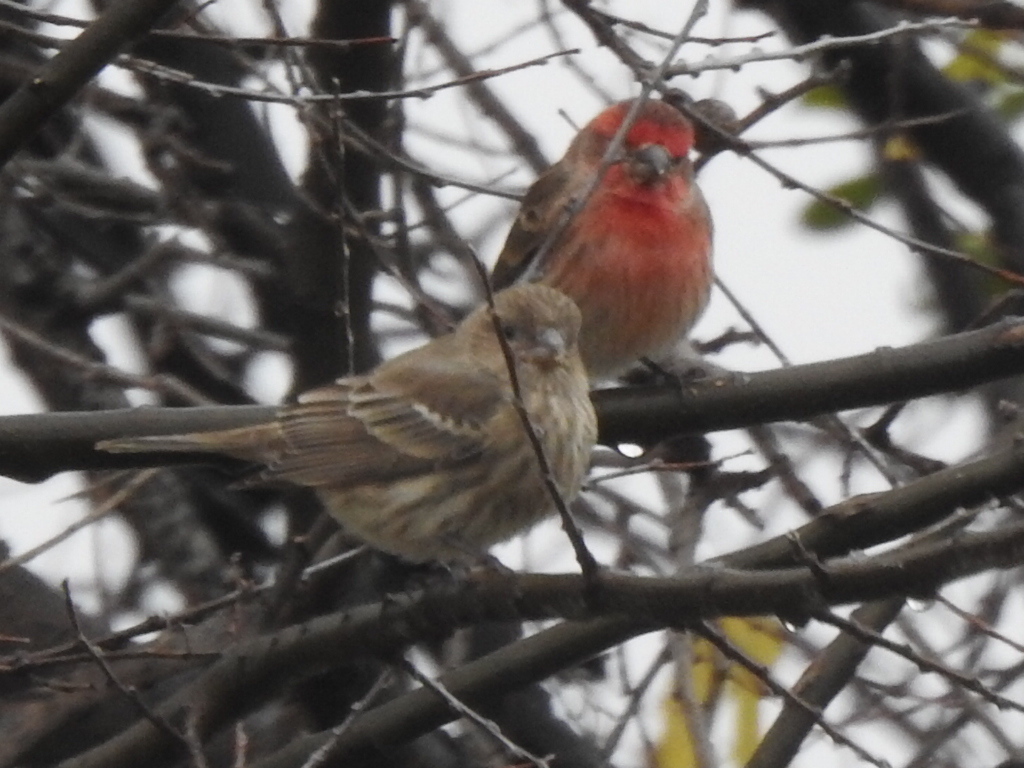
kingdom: Animalia
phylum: Chordata
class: Aves
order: Passeriformes
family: Fringillidae
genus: Haemorhous
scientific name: Haemorhous mexicanus
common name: House finch
